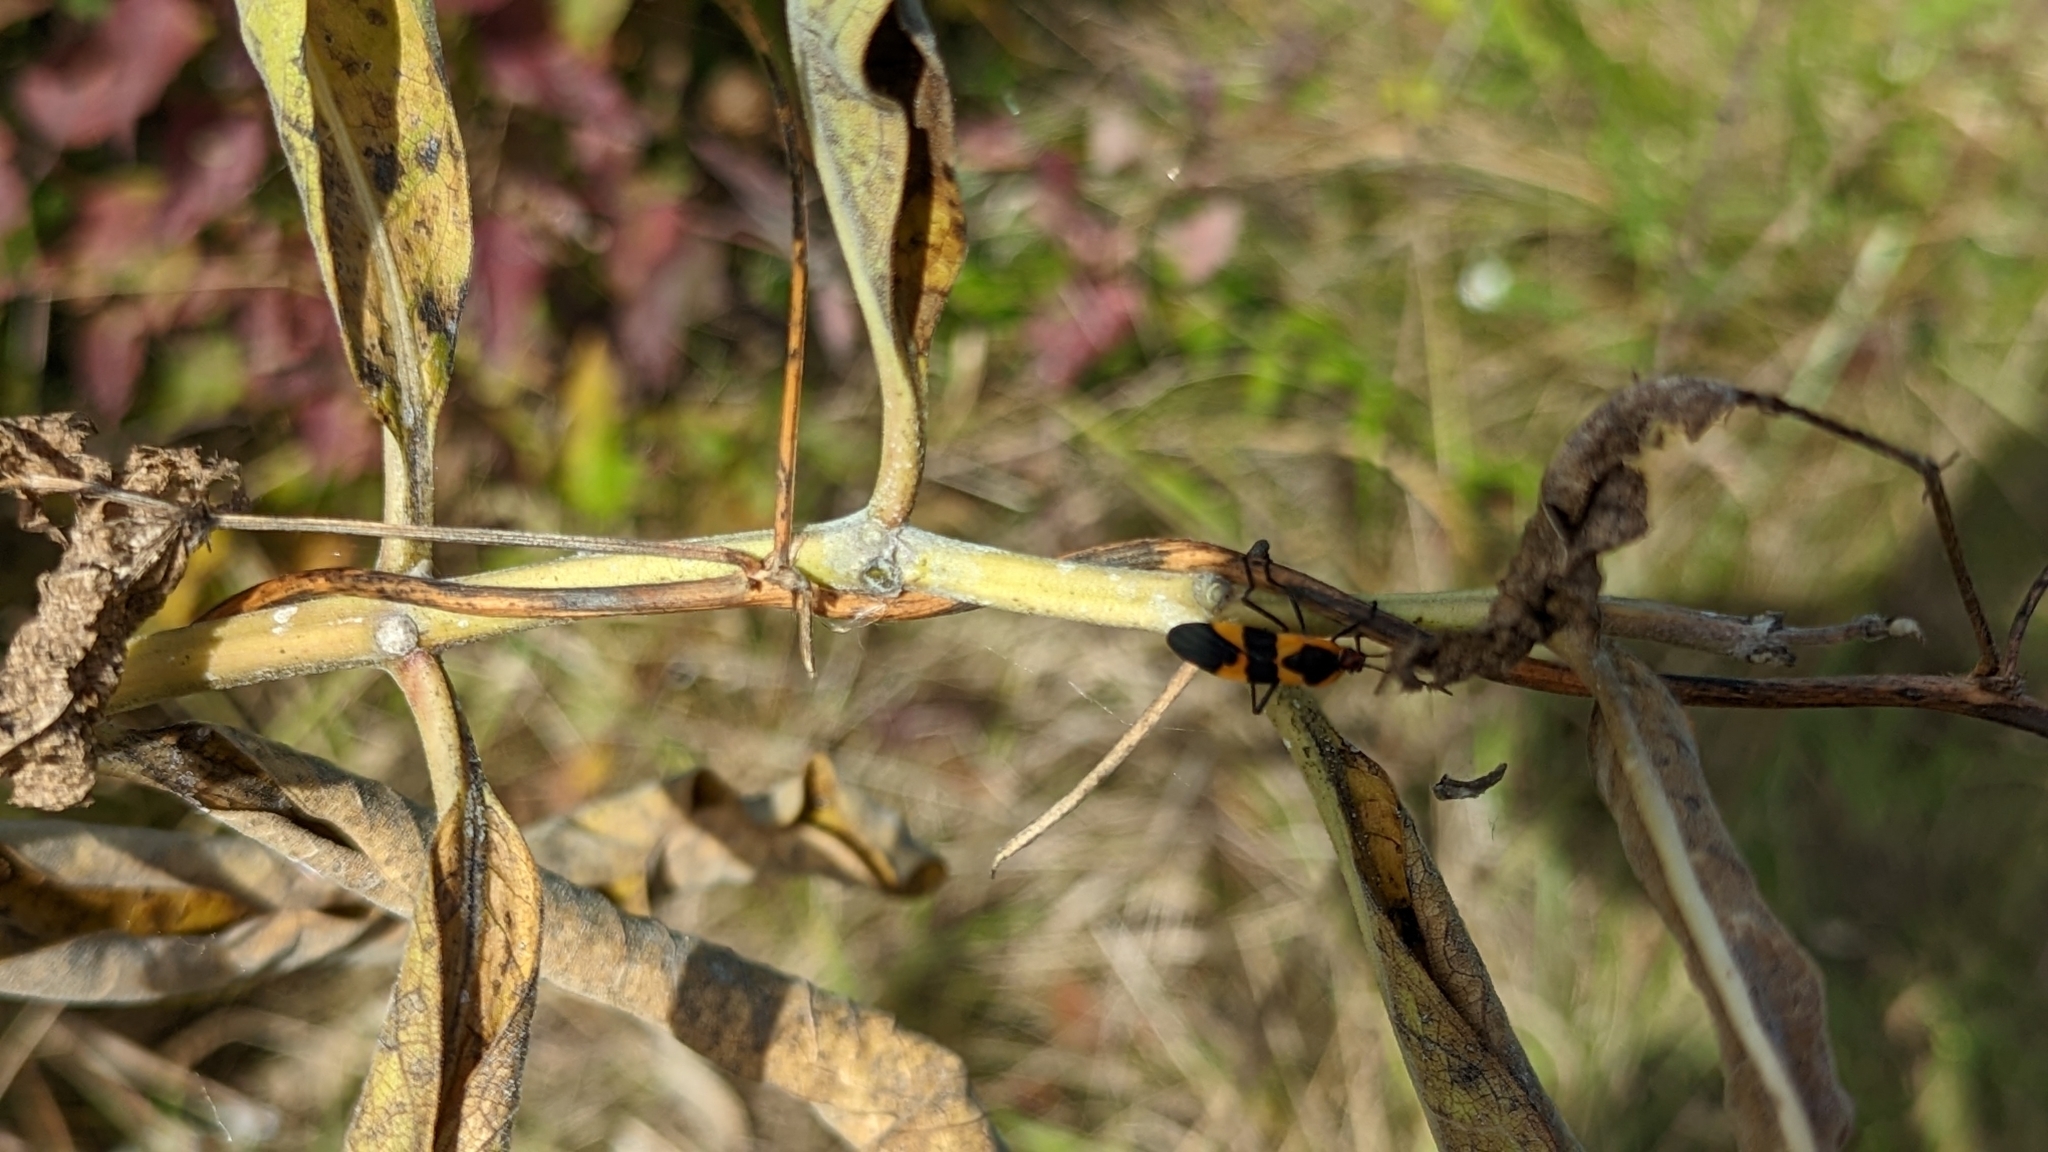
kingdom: Animalia
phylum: Arthropoda
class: Insecta
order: Hemiptera
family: Lygaeidae
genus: Oncopeltus
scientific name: Oncopeltus fasciatus
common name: Large milkweed bug
